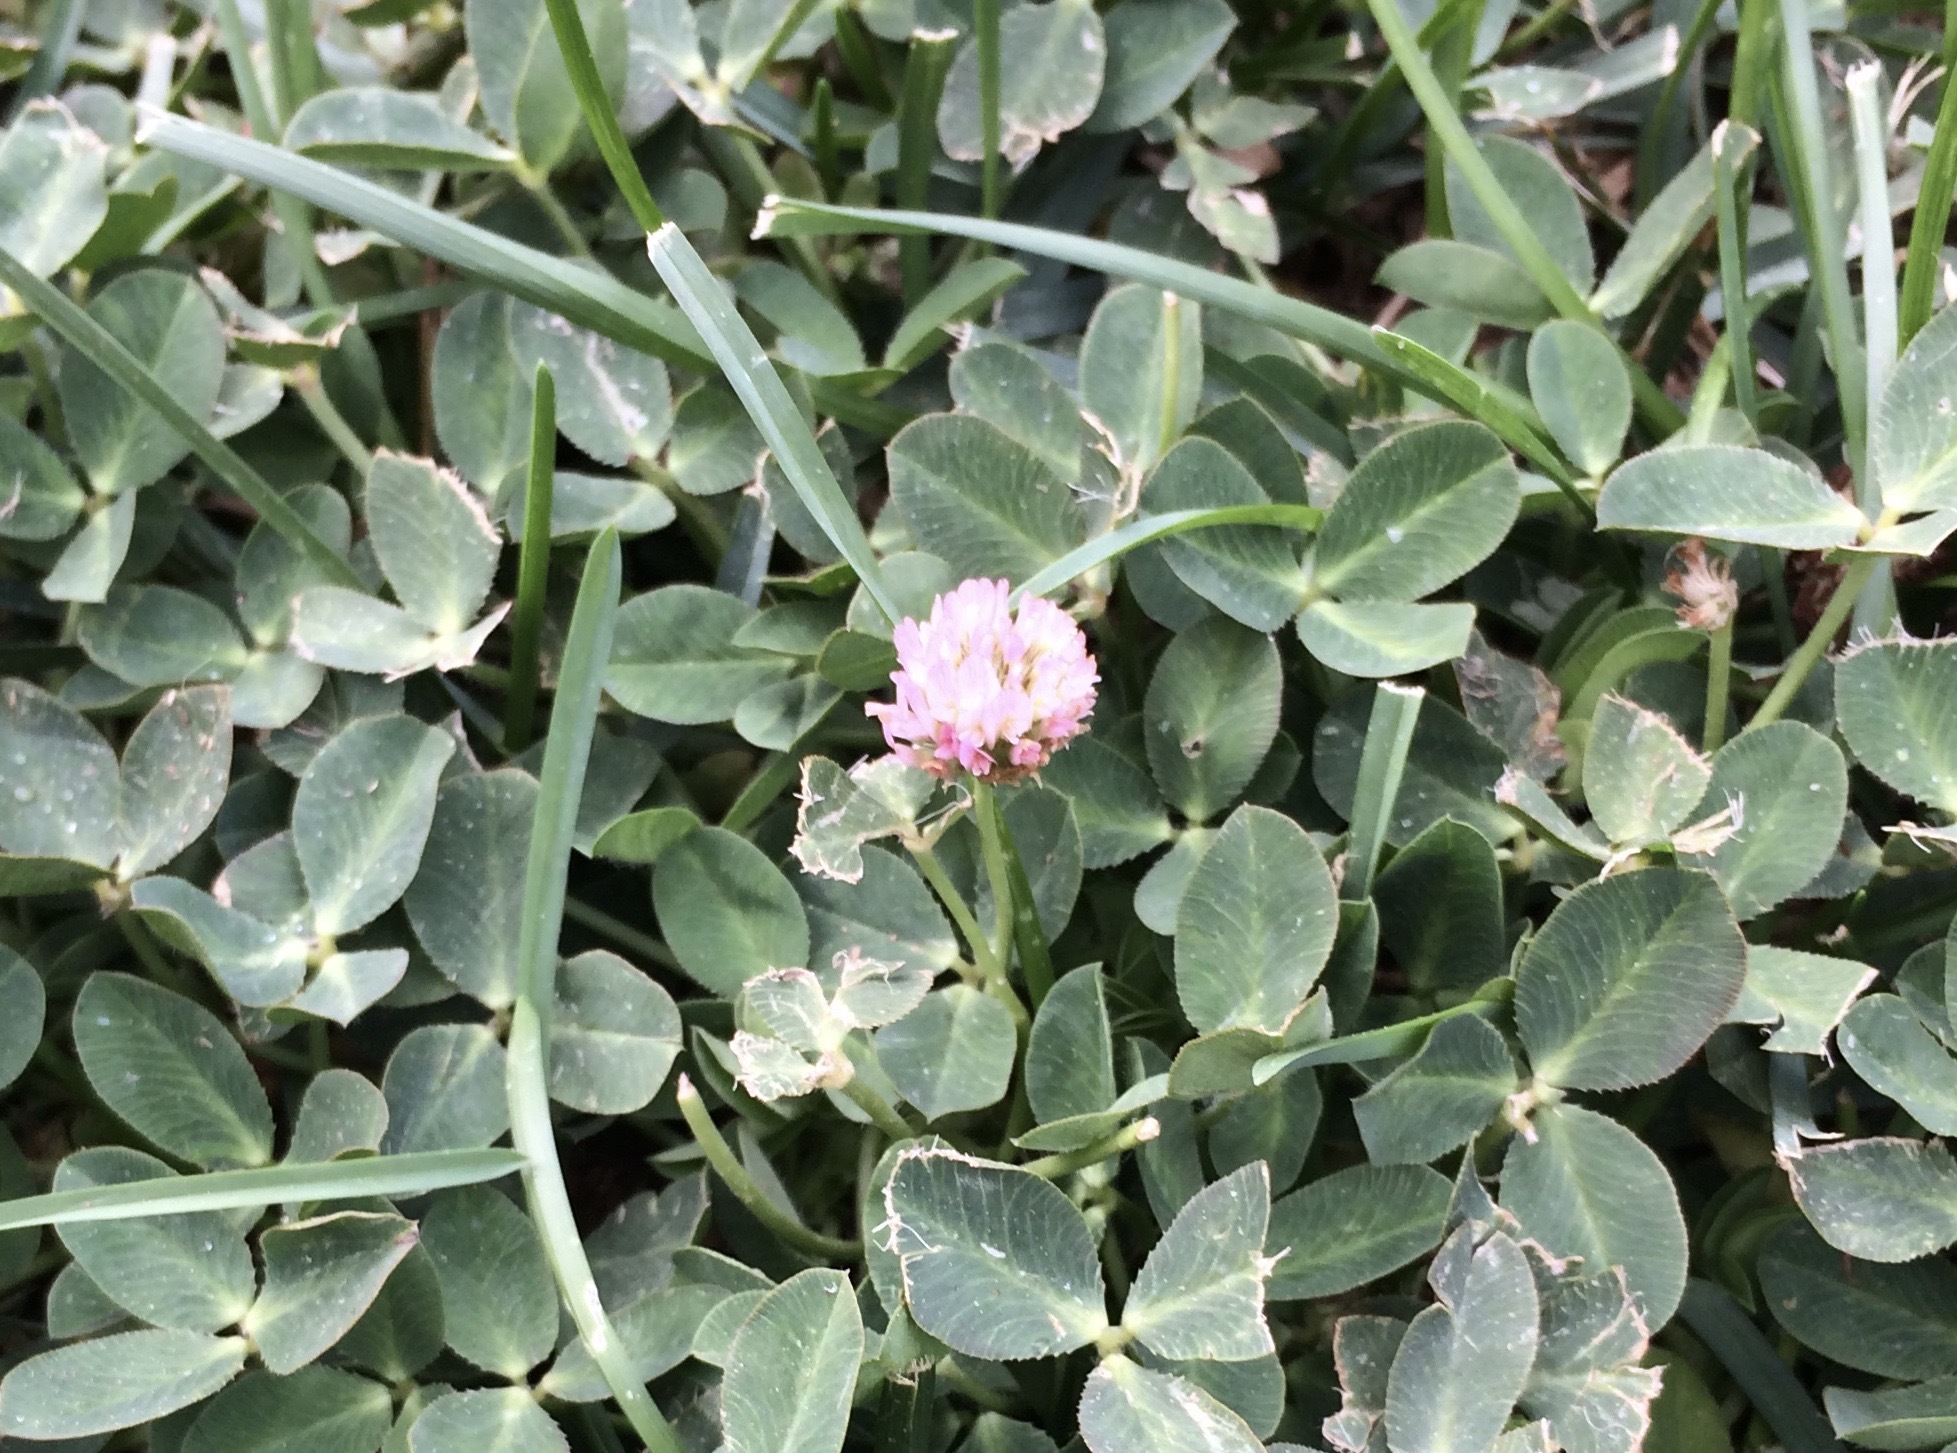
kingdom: Plantae
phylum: Tracheophyta
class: Magnoliopsida
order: Fabales
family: Fabaceae
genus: Trifolium
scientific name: Trifolium fragiferum
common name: Strawberry clover
